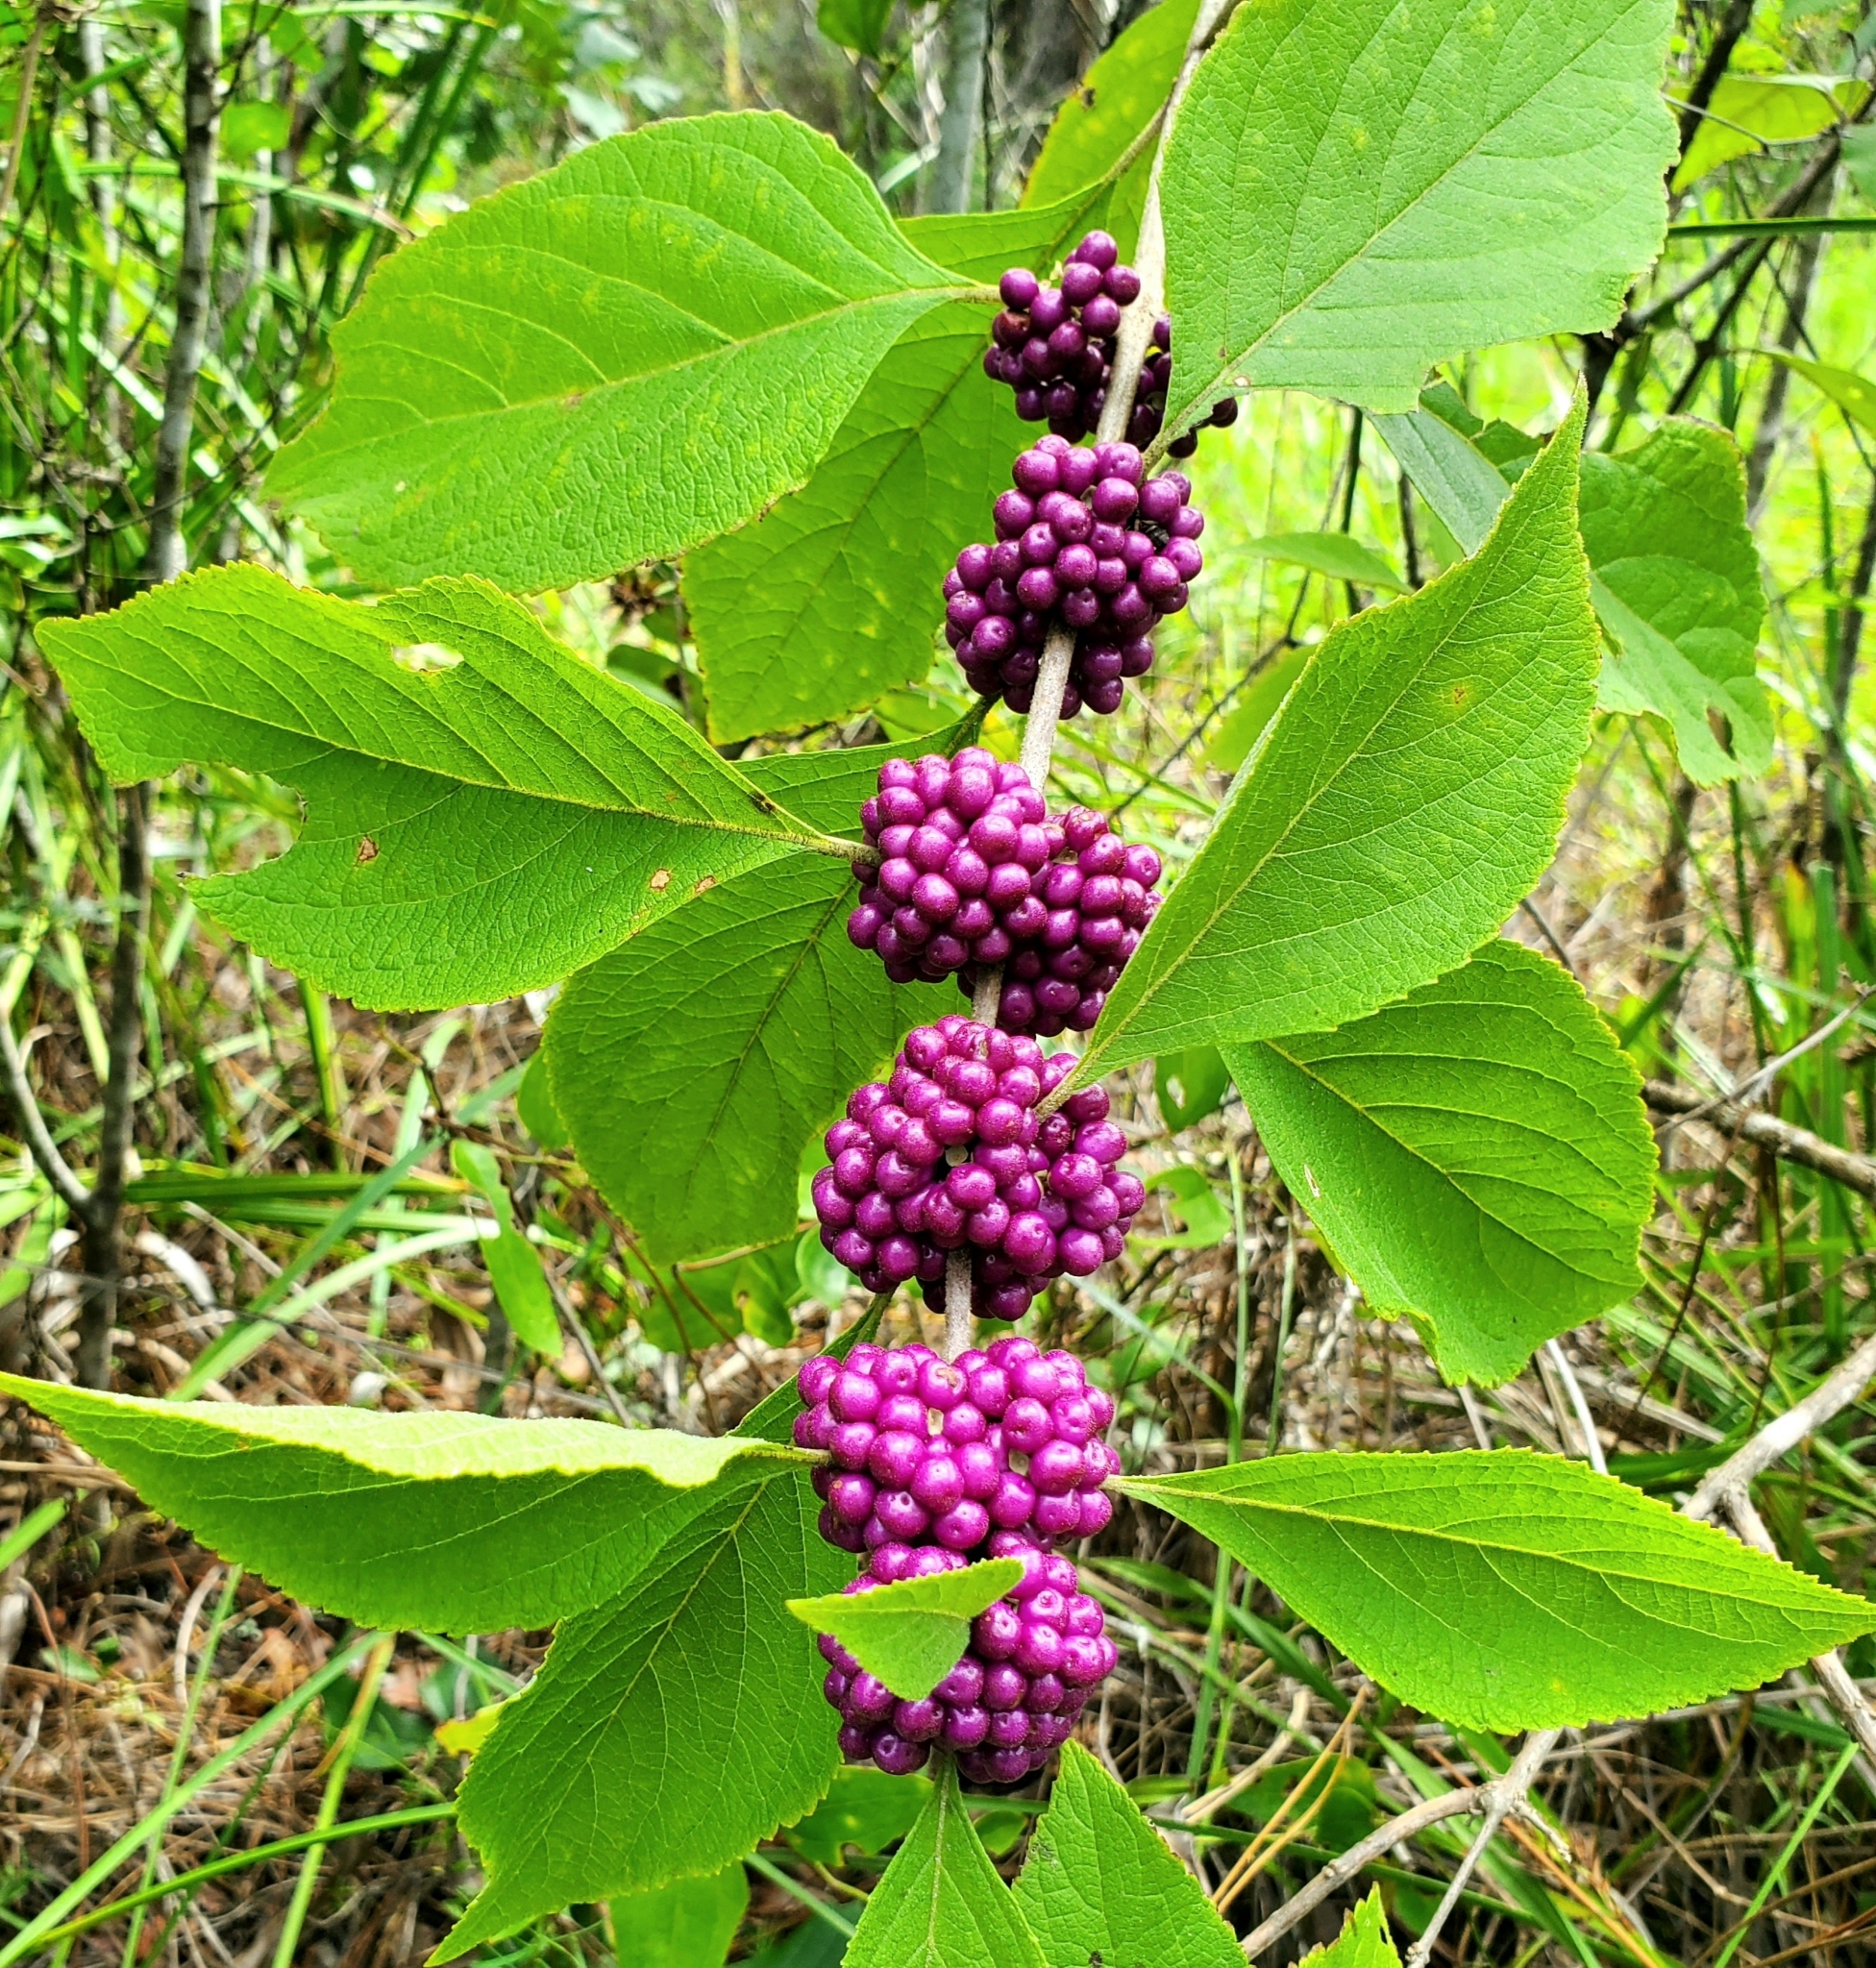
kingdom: Plantae
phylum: Tracheophyta
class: Magnoliopsida
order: Lamiales
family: Lamiaceae
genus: Callicarpa
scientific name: Callicarpa americana
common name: American beautyberry
